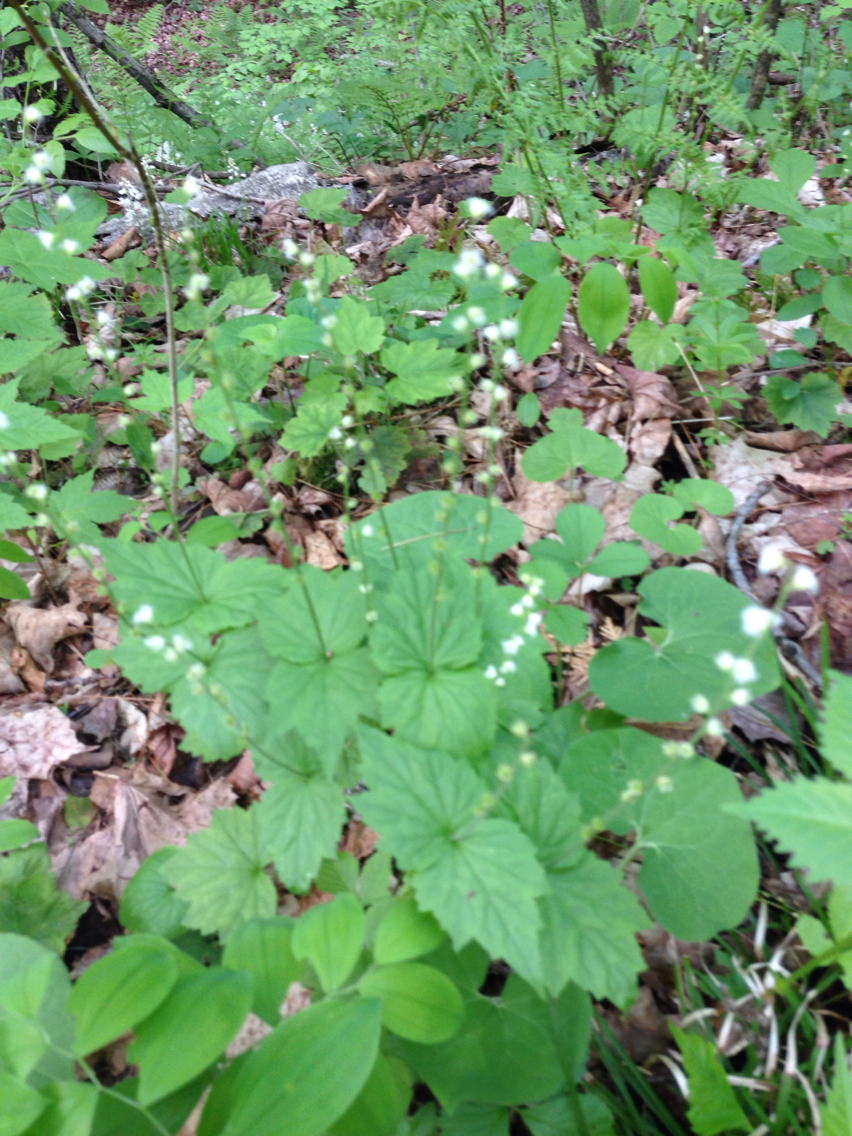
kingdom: Plantae
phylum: Tracheophyta
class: Magnoliopsida
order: Saxifragales
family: Saxifragaceae
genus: Mitella
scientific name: Mitella diphylla
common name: Coolwort
